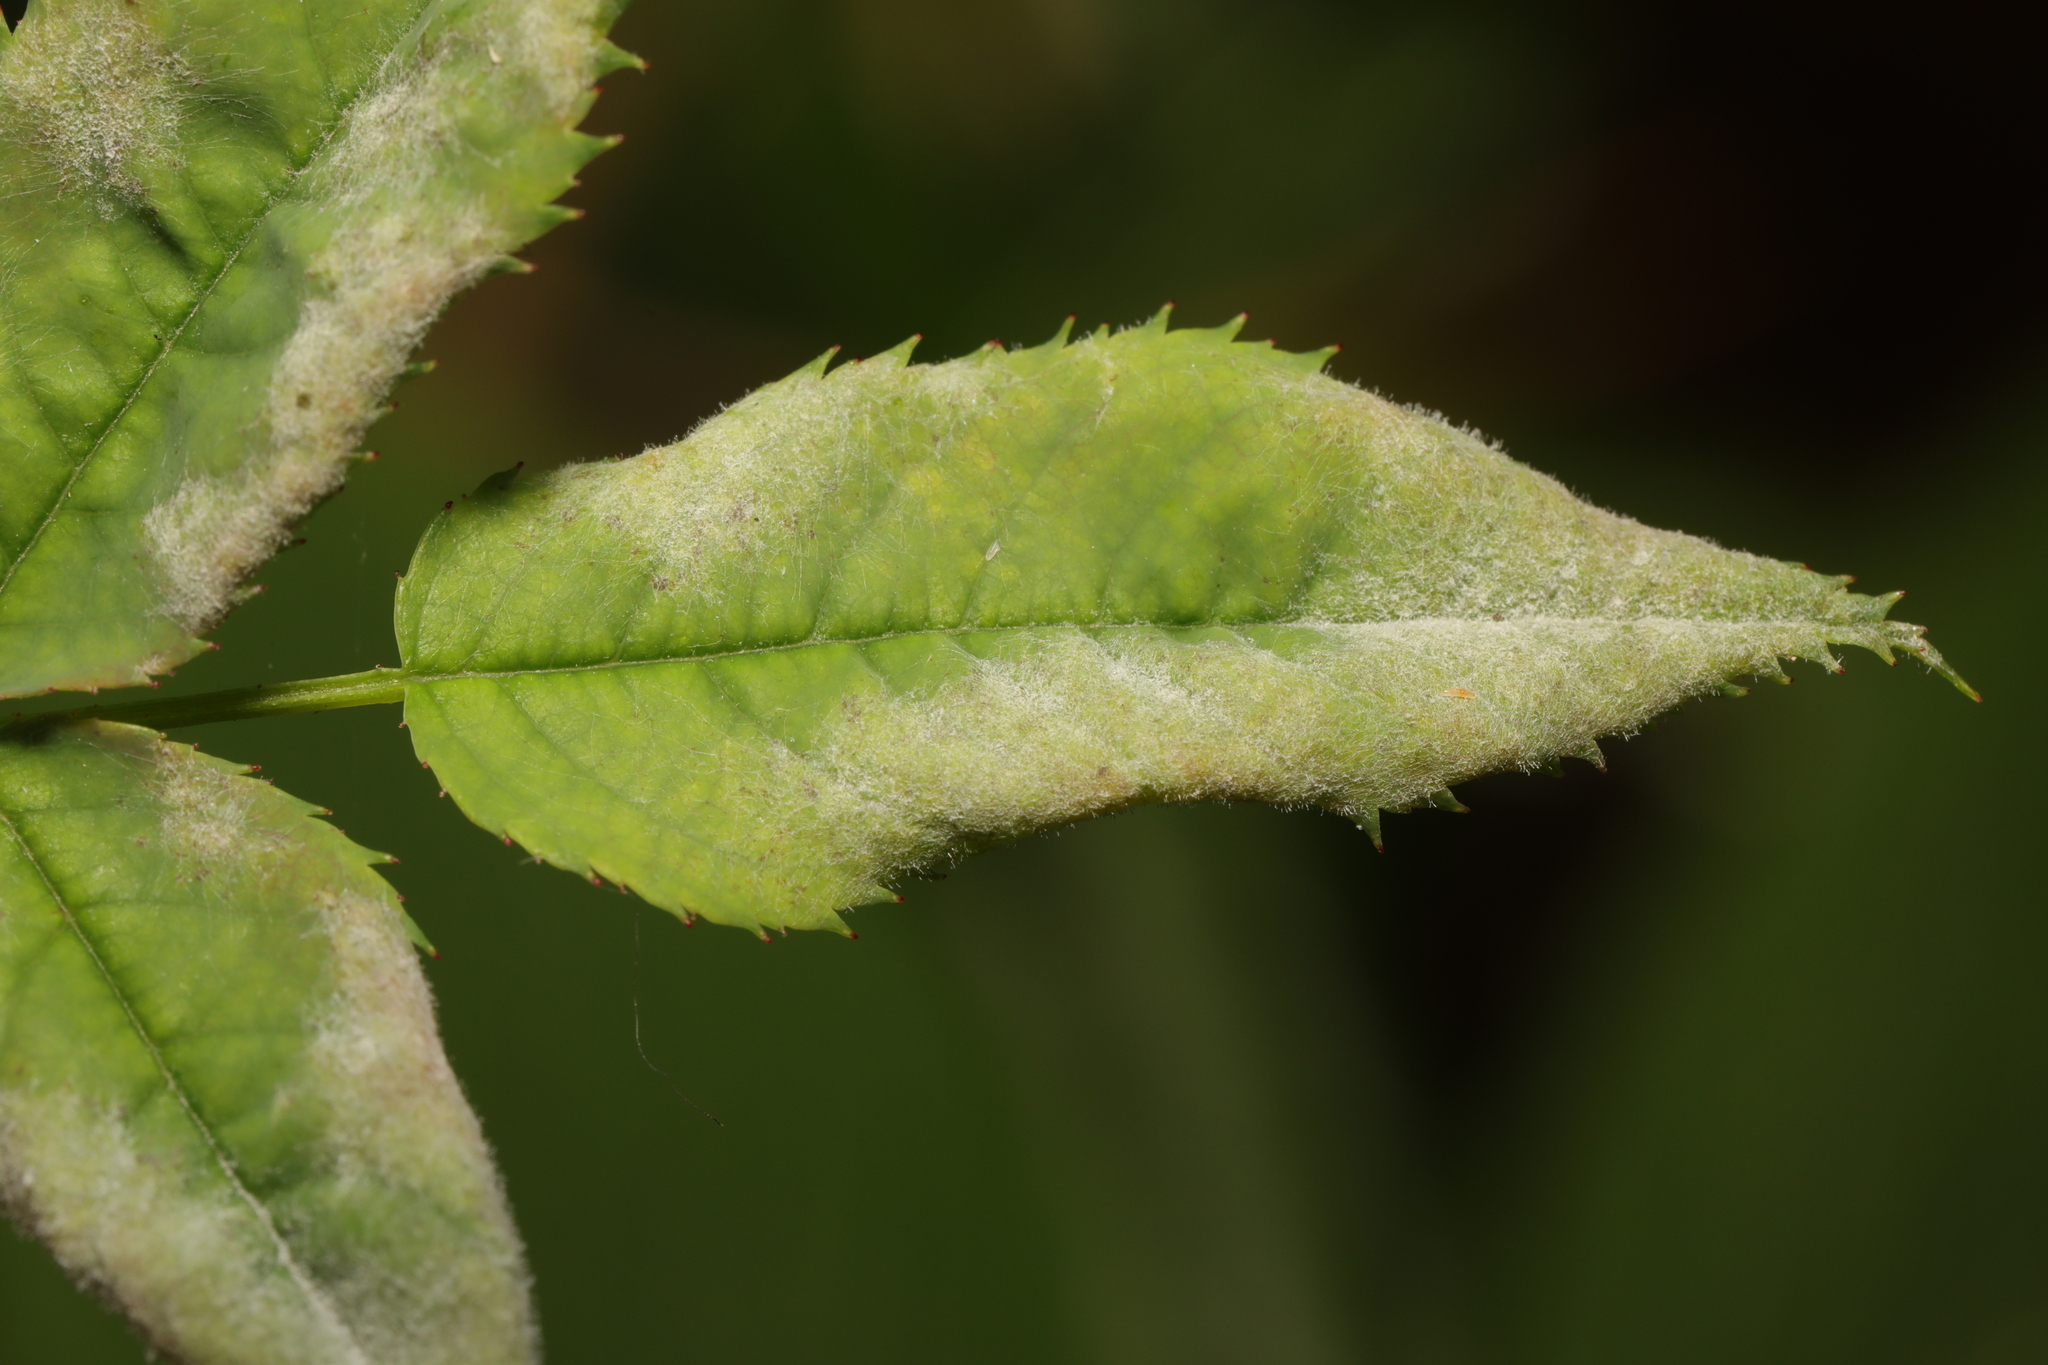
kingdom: Fungi
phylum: Ascomycota
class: Leotiomycetes
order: Helotiales
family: Erysiphaceae
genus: Podosphaera
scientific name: Podosphaera pannosa
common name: Rose mildew
